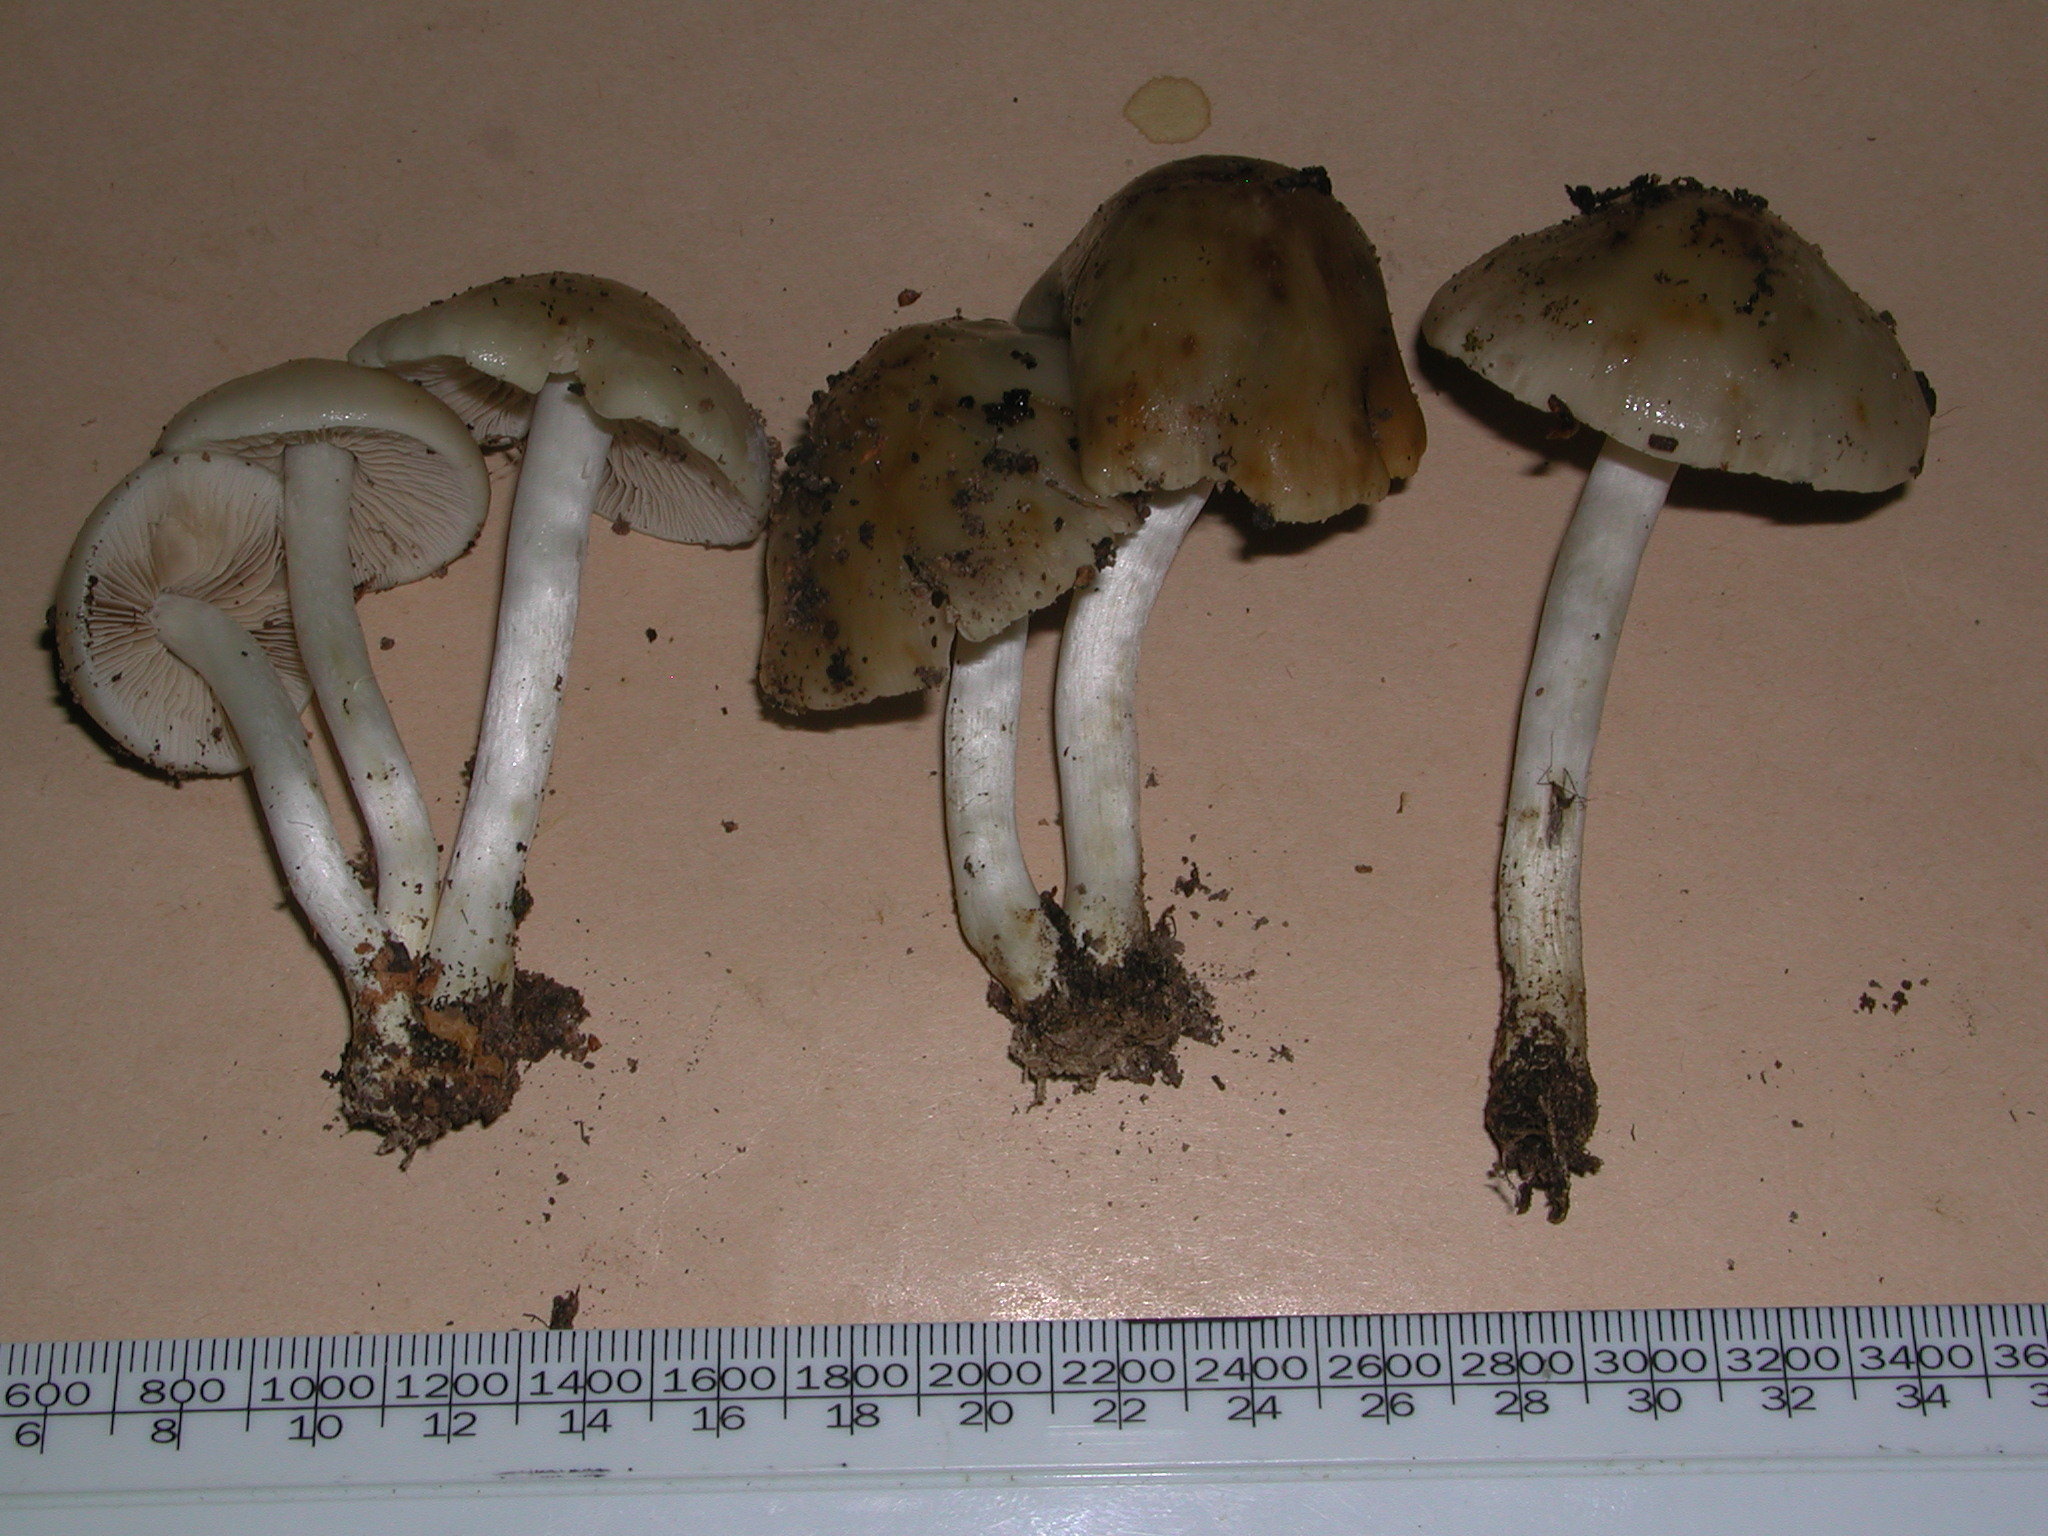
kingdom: Fungi
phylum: Basidiomycota
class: Agaricomycetes
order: Agaricales
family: Hymenogastraceae
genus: Psathyloma
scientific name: Psathyloma leucocarpum
